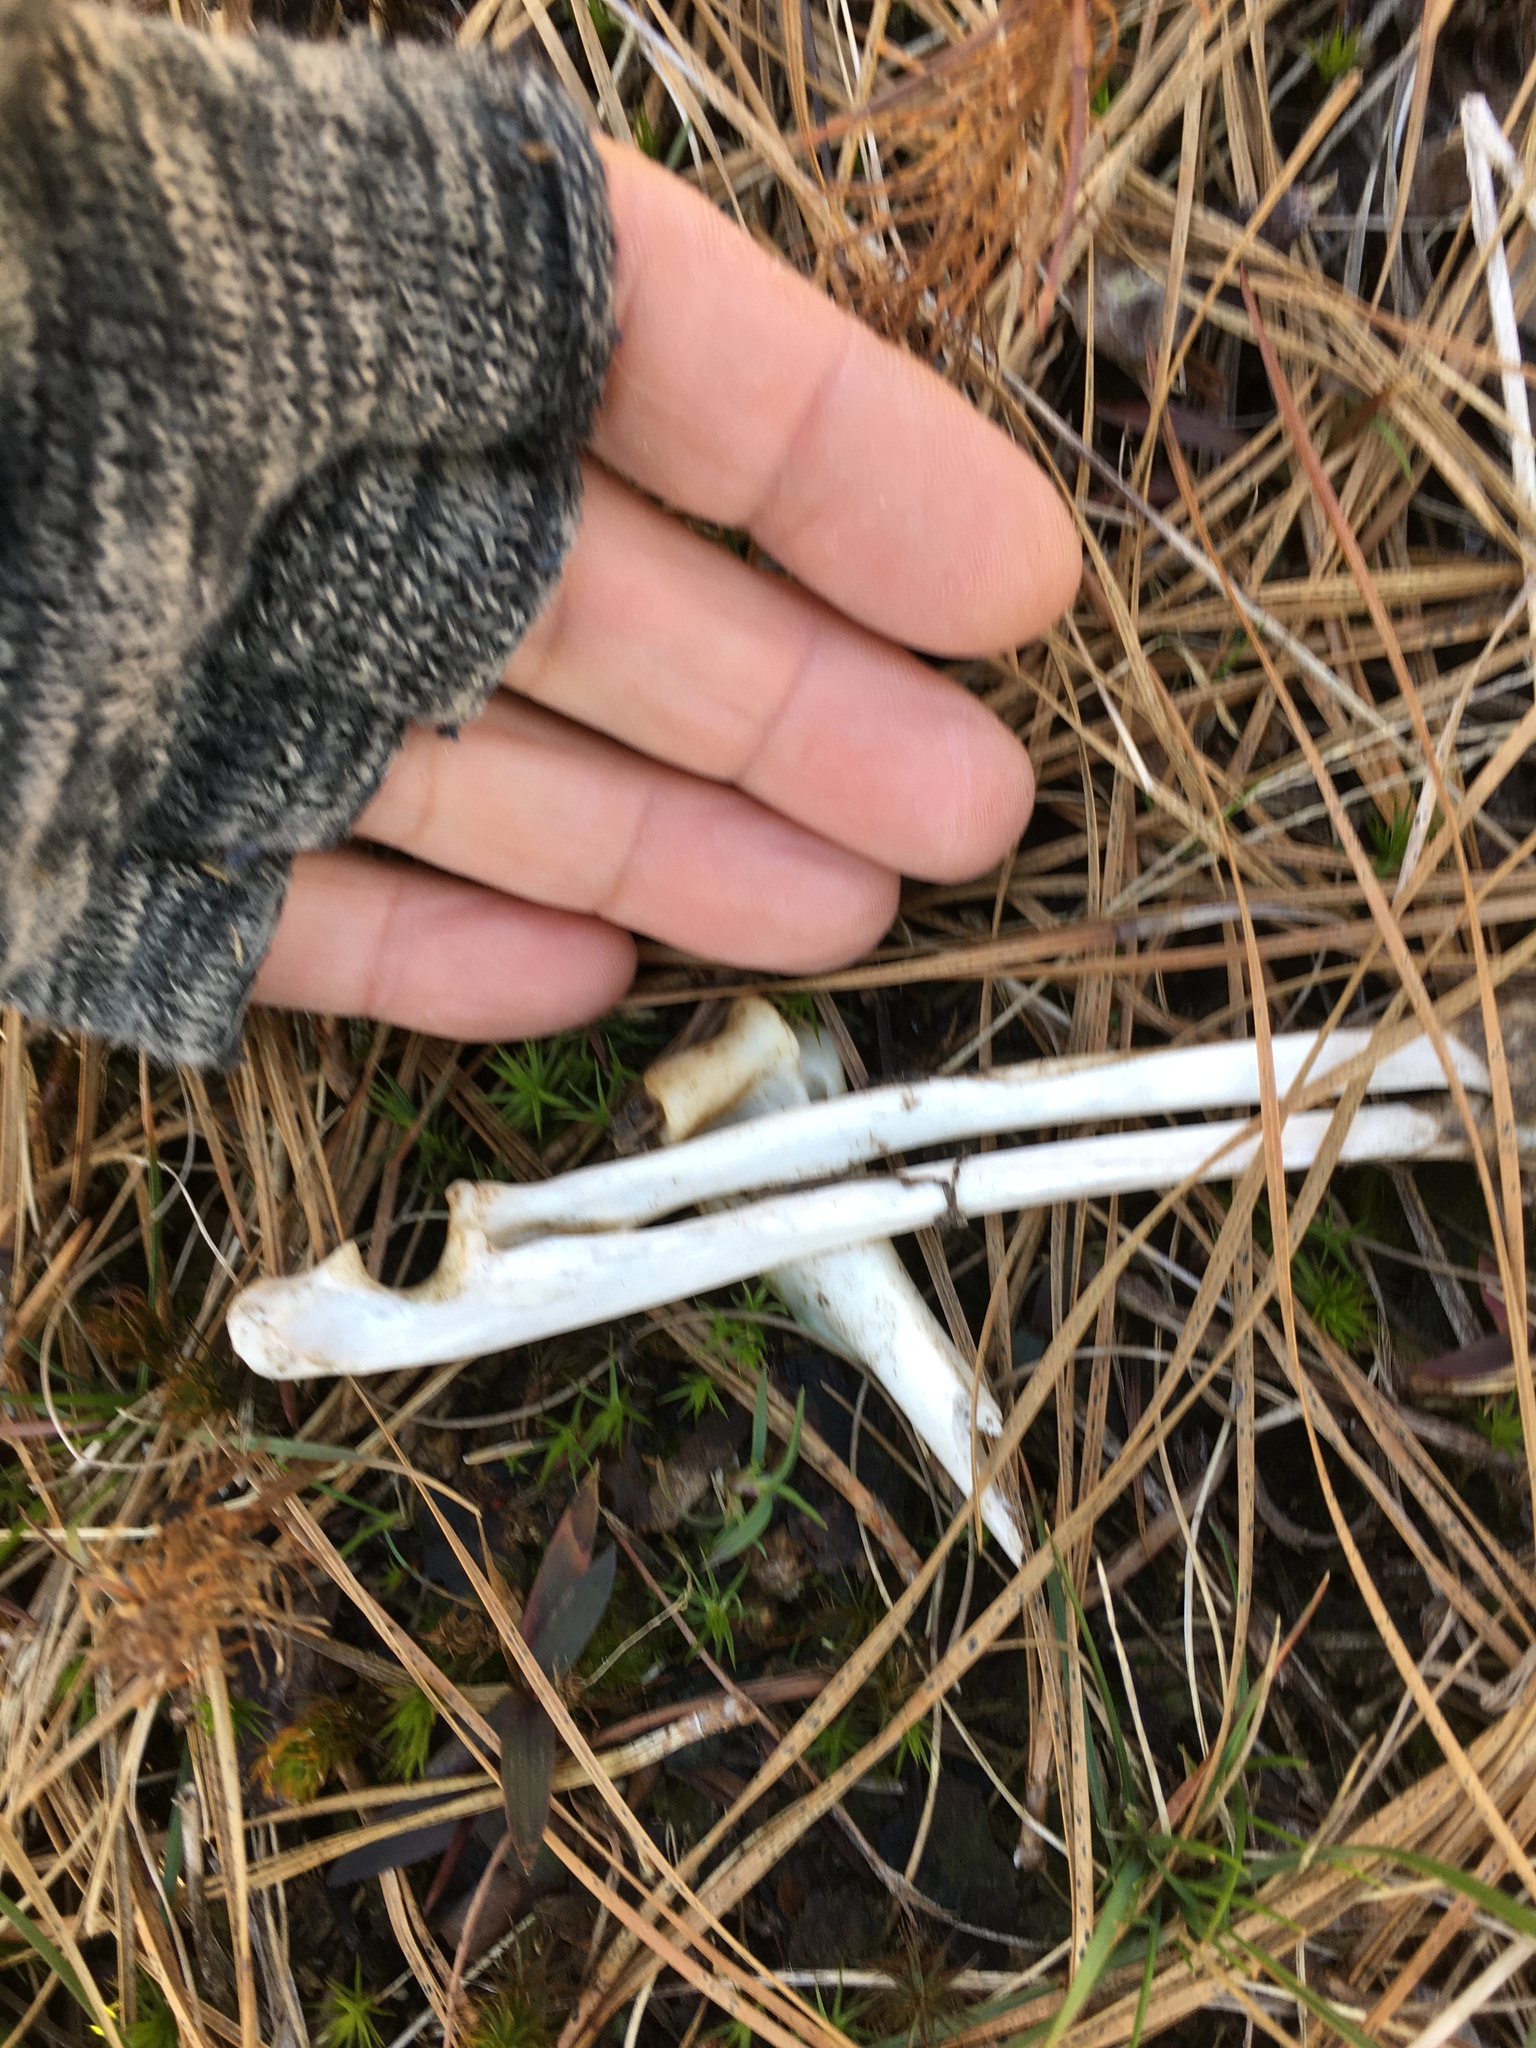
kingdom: Animalia
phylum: Chordata
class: Mammalia
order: Carnivora
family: Procyonidae
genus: Procyon
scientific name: Procyon lotor
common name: Raccoon
